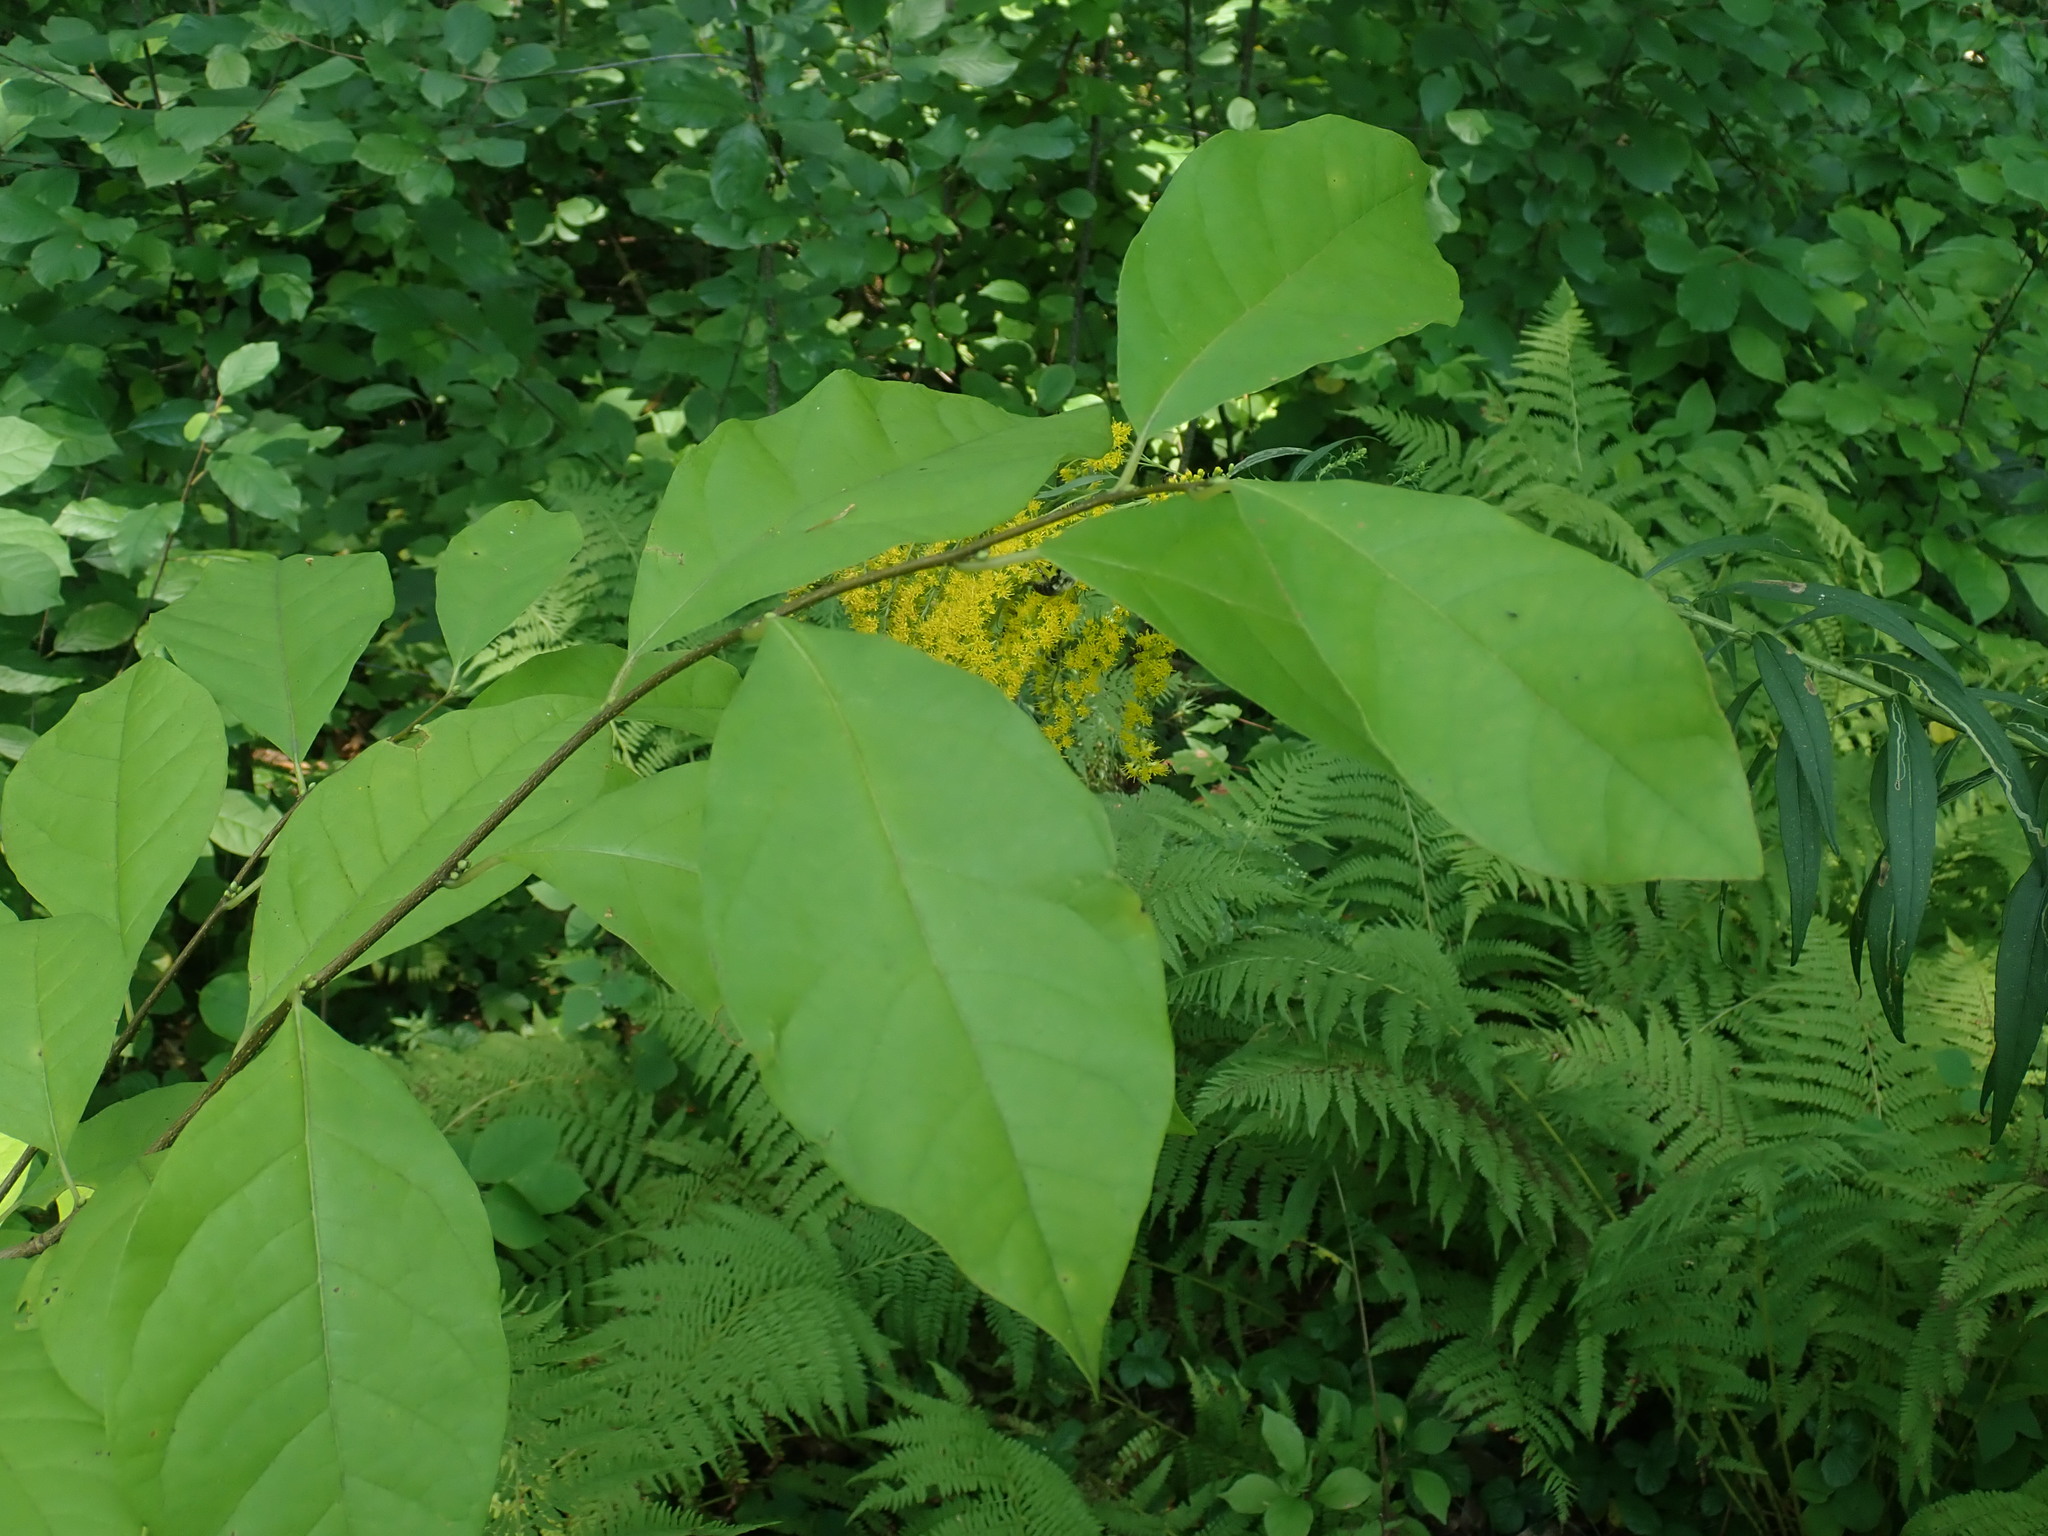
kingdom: Plantae
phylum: Tracheophyta
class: Magnoliopsida
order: Laurales
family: Lauraceae
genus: Lindera
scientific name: Lindera benzoin
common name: Spicebush
